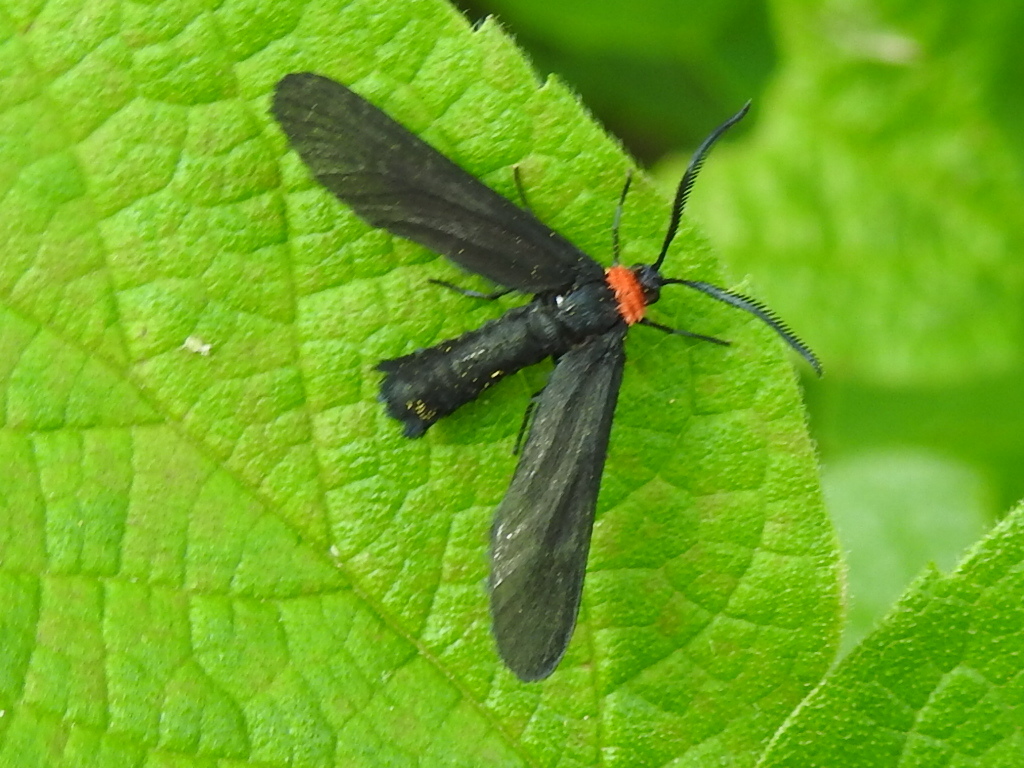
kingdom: Animalia
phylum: Arthropoda
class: Insecta
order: Lepidoptera
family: Zygaenidae
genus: Harrisina
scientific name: Harrisina americana
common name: Grapeleaf skeletonizer moth
